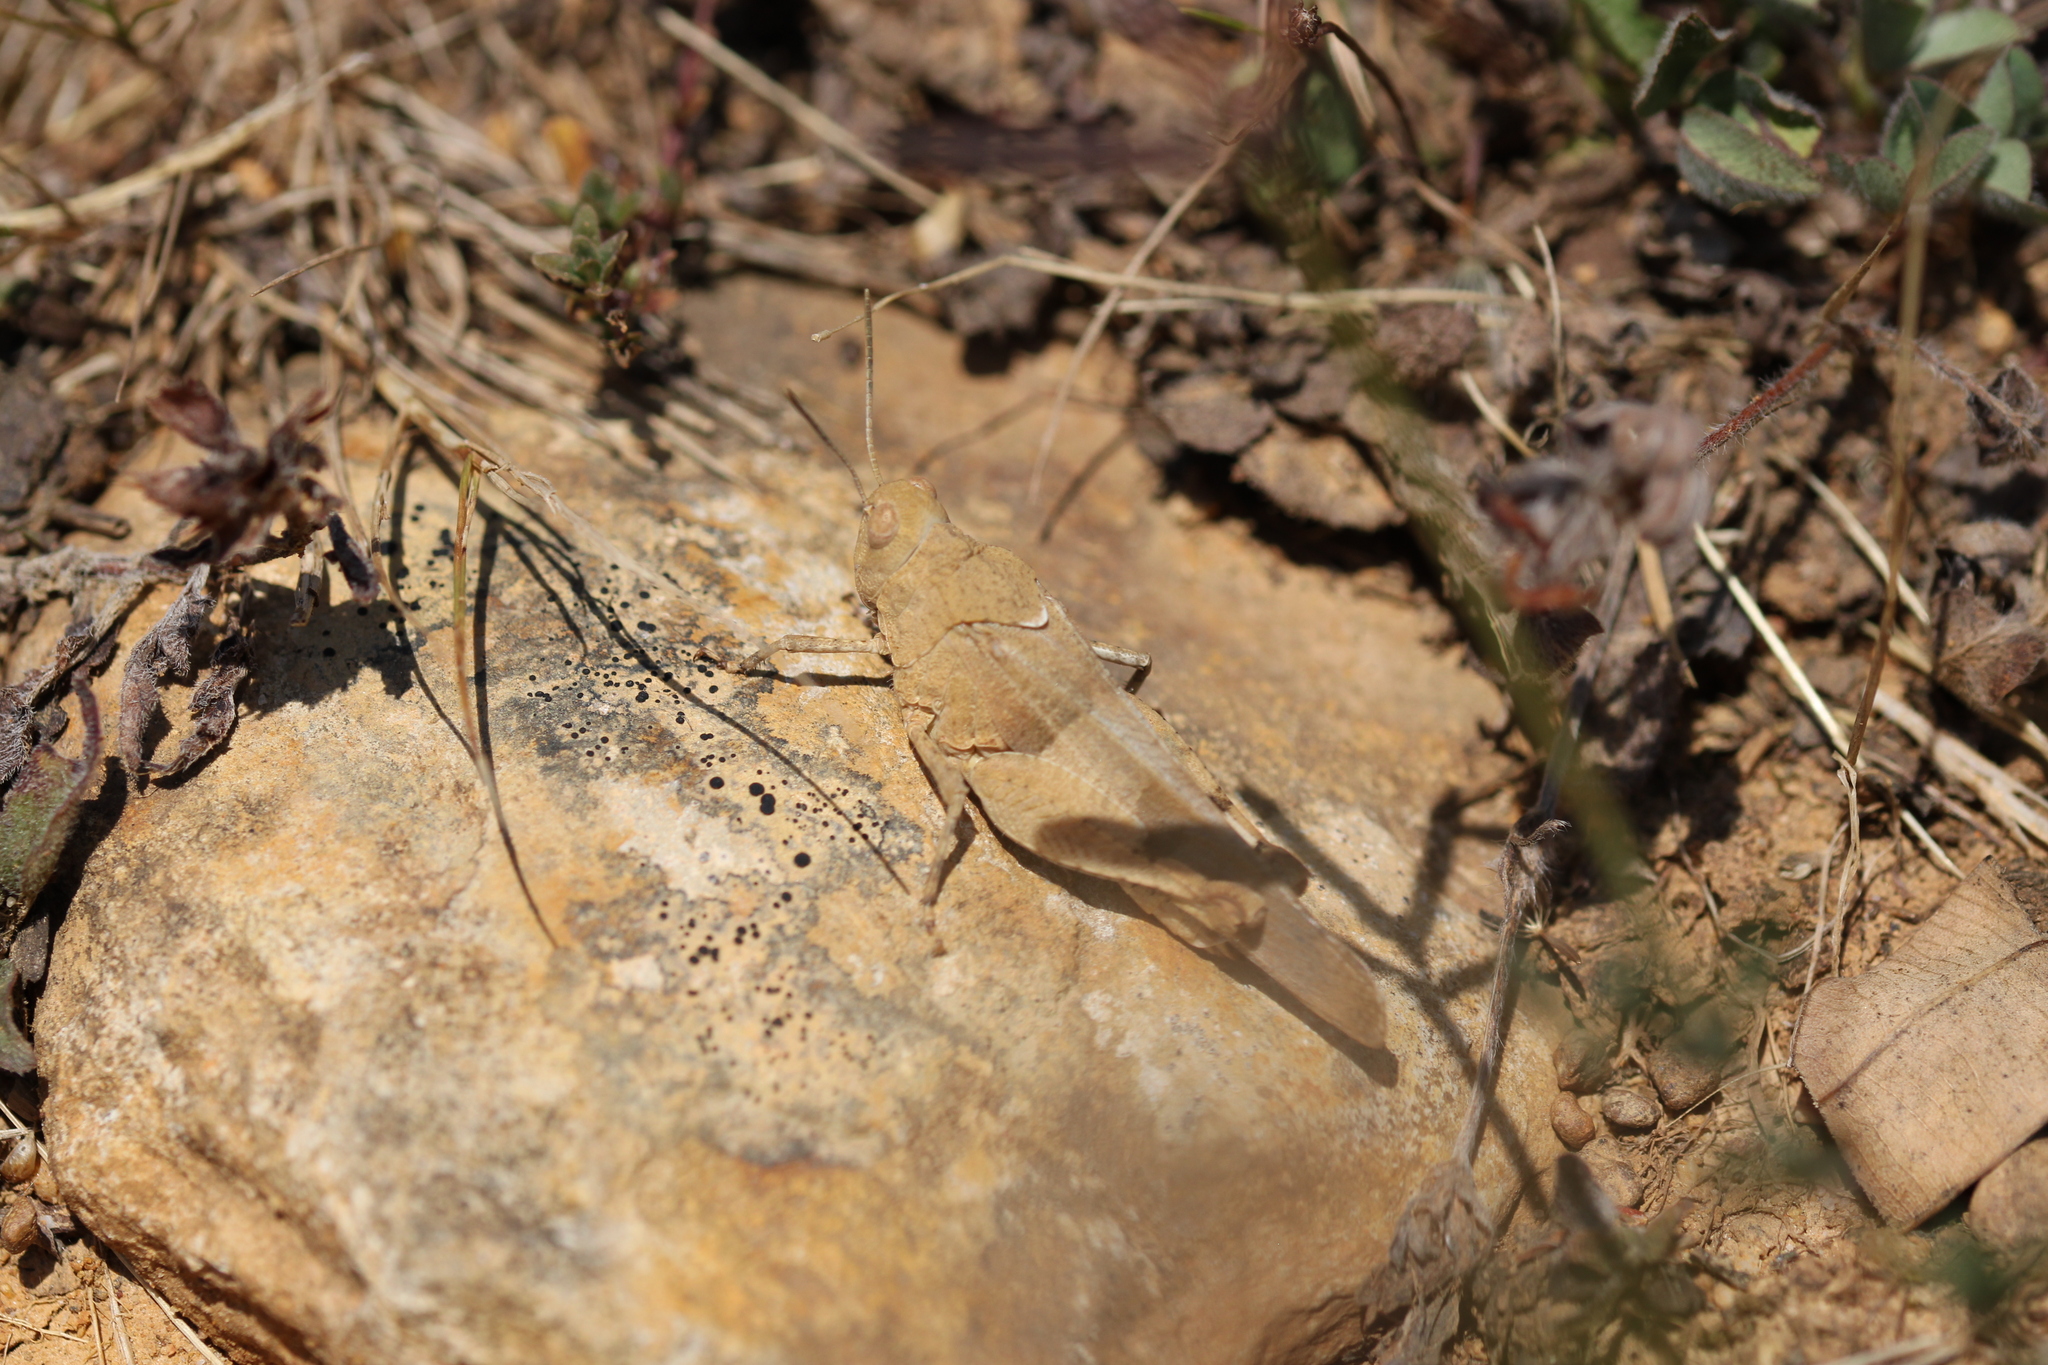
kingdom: Animalia
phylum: Arthropoda
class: Insecta
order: Orthoptera
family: Acrididae
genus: Oedipoda
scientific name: Oedipoda caerulescens
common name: Blue-winged grasshopper
